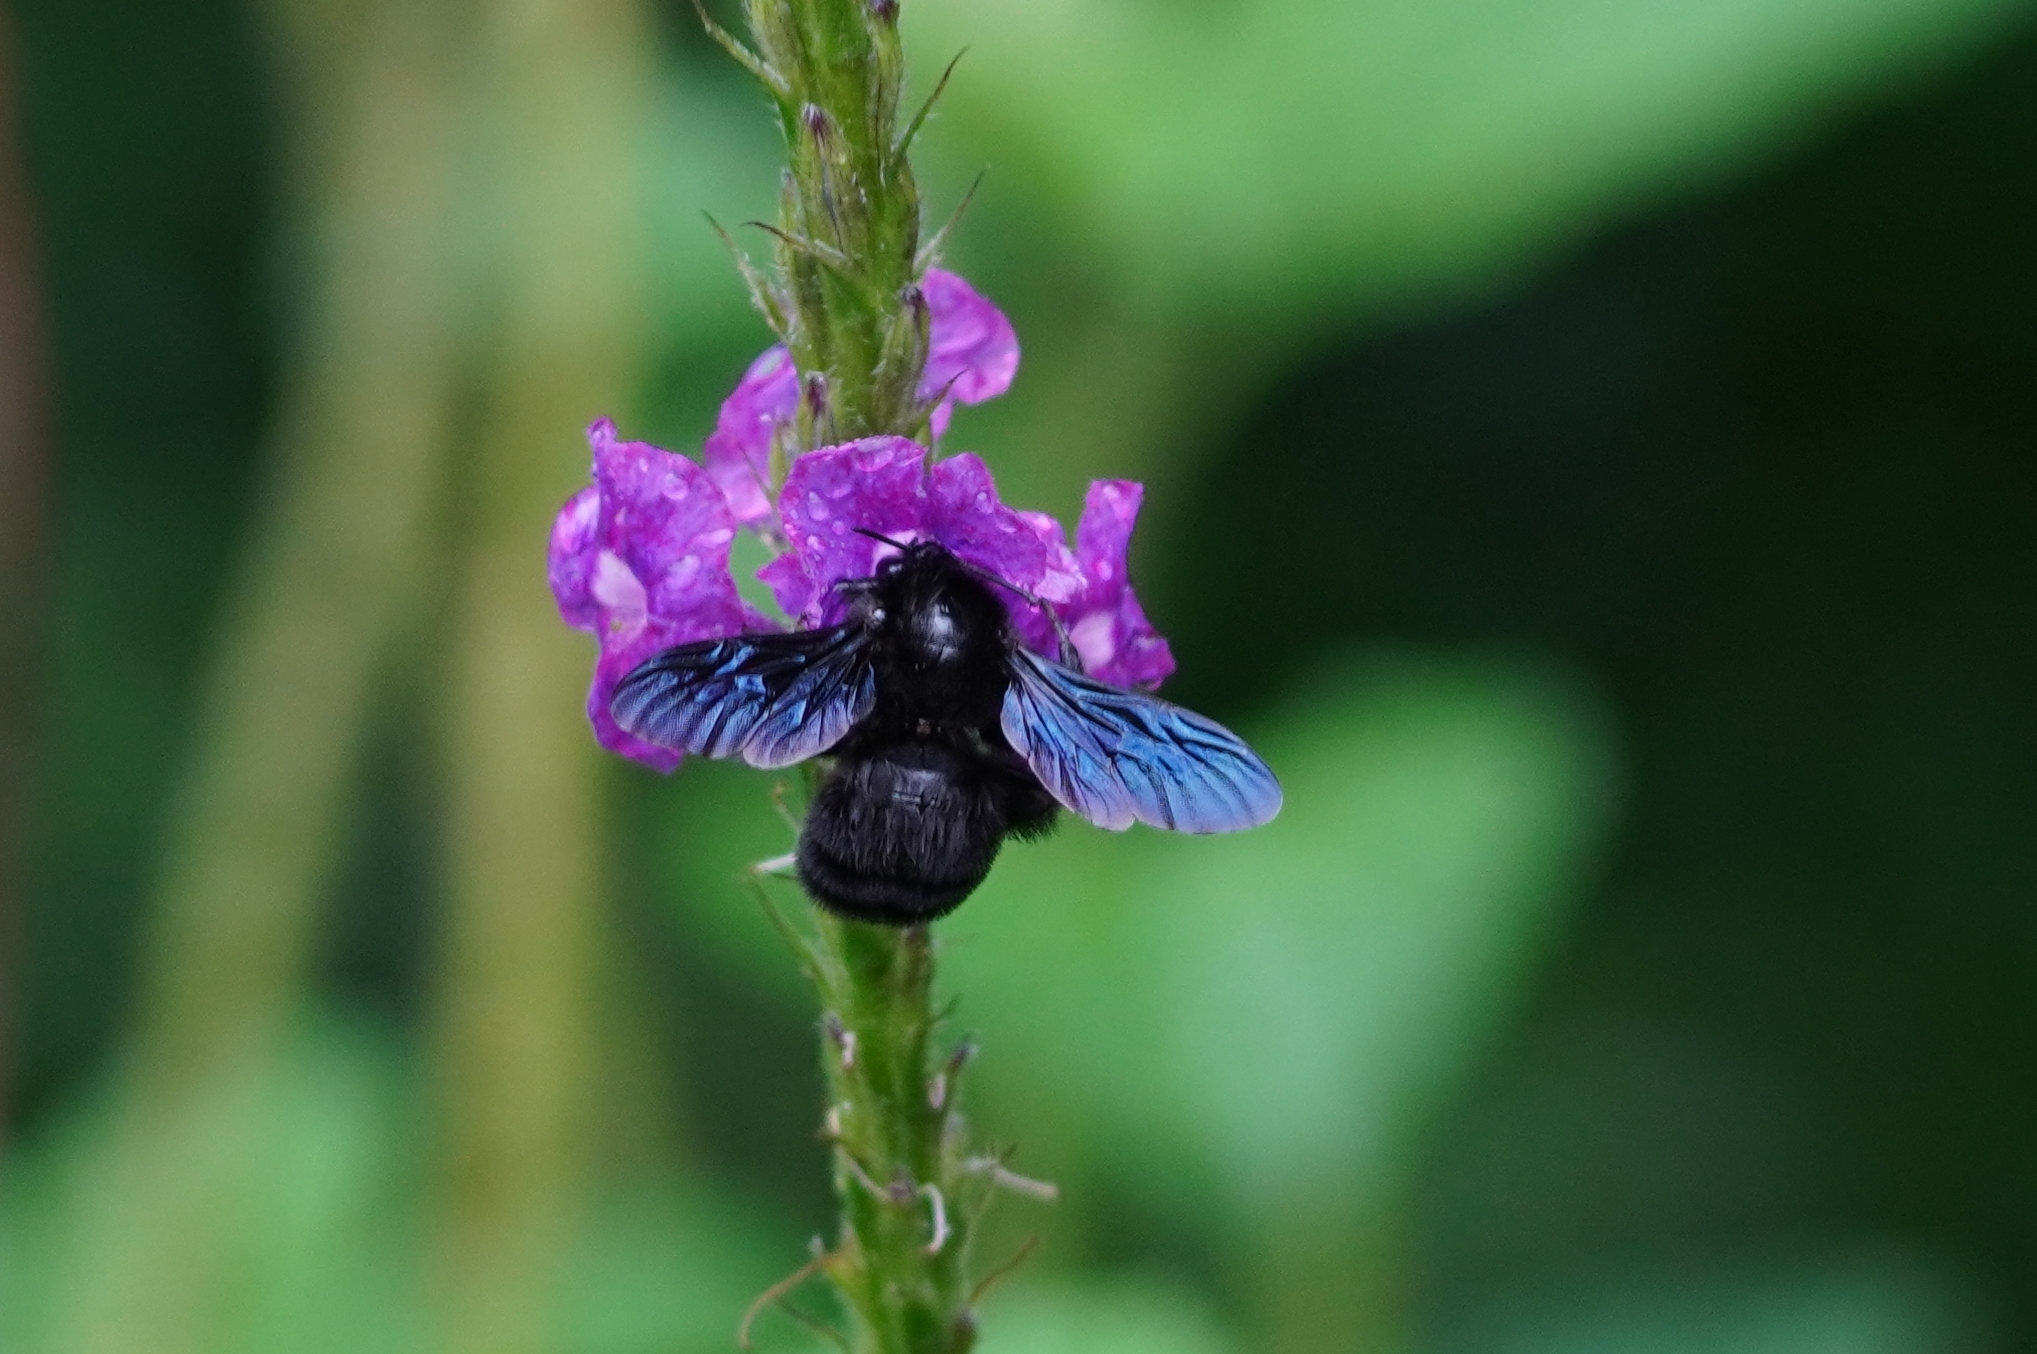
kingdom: Animalia
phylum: Arthropoda
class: Insecta
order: Hymenoptera
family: Apidae
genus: Bombus
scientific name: Bombus pullatus
